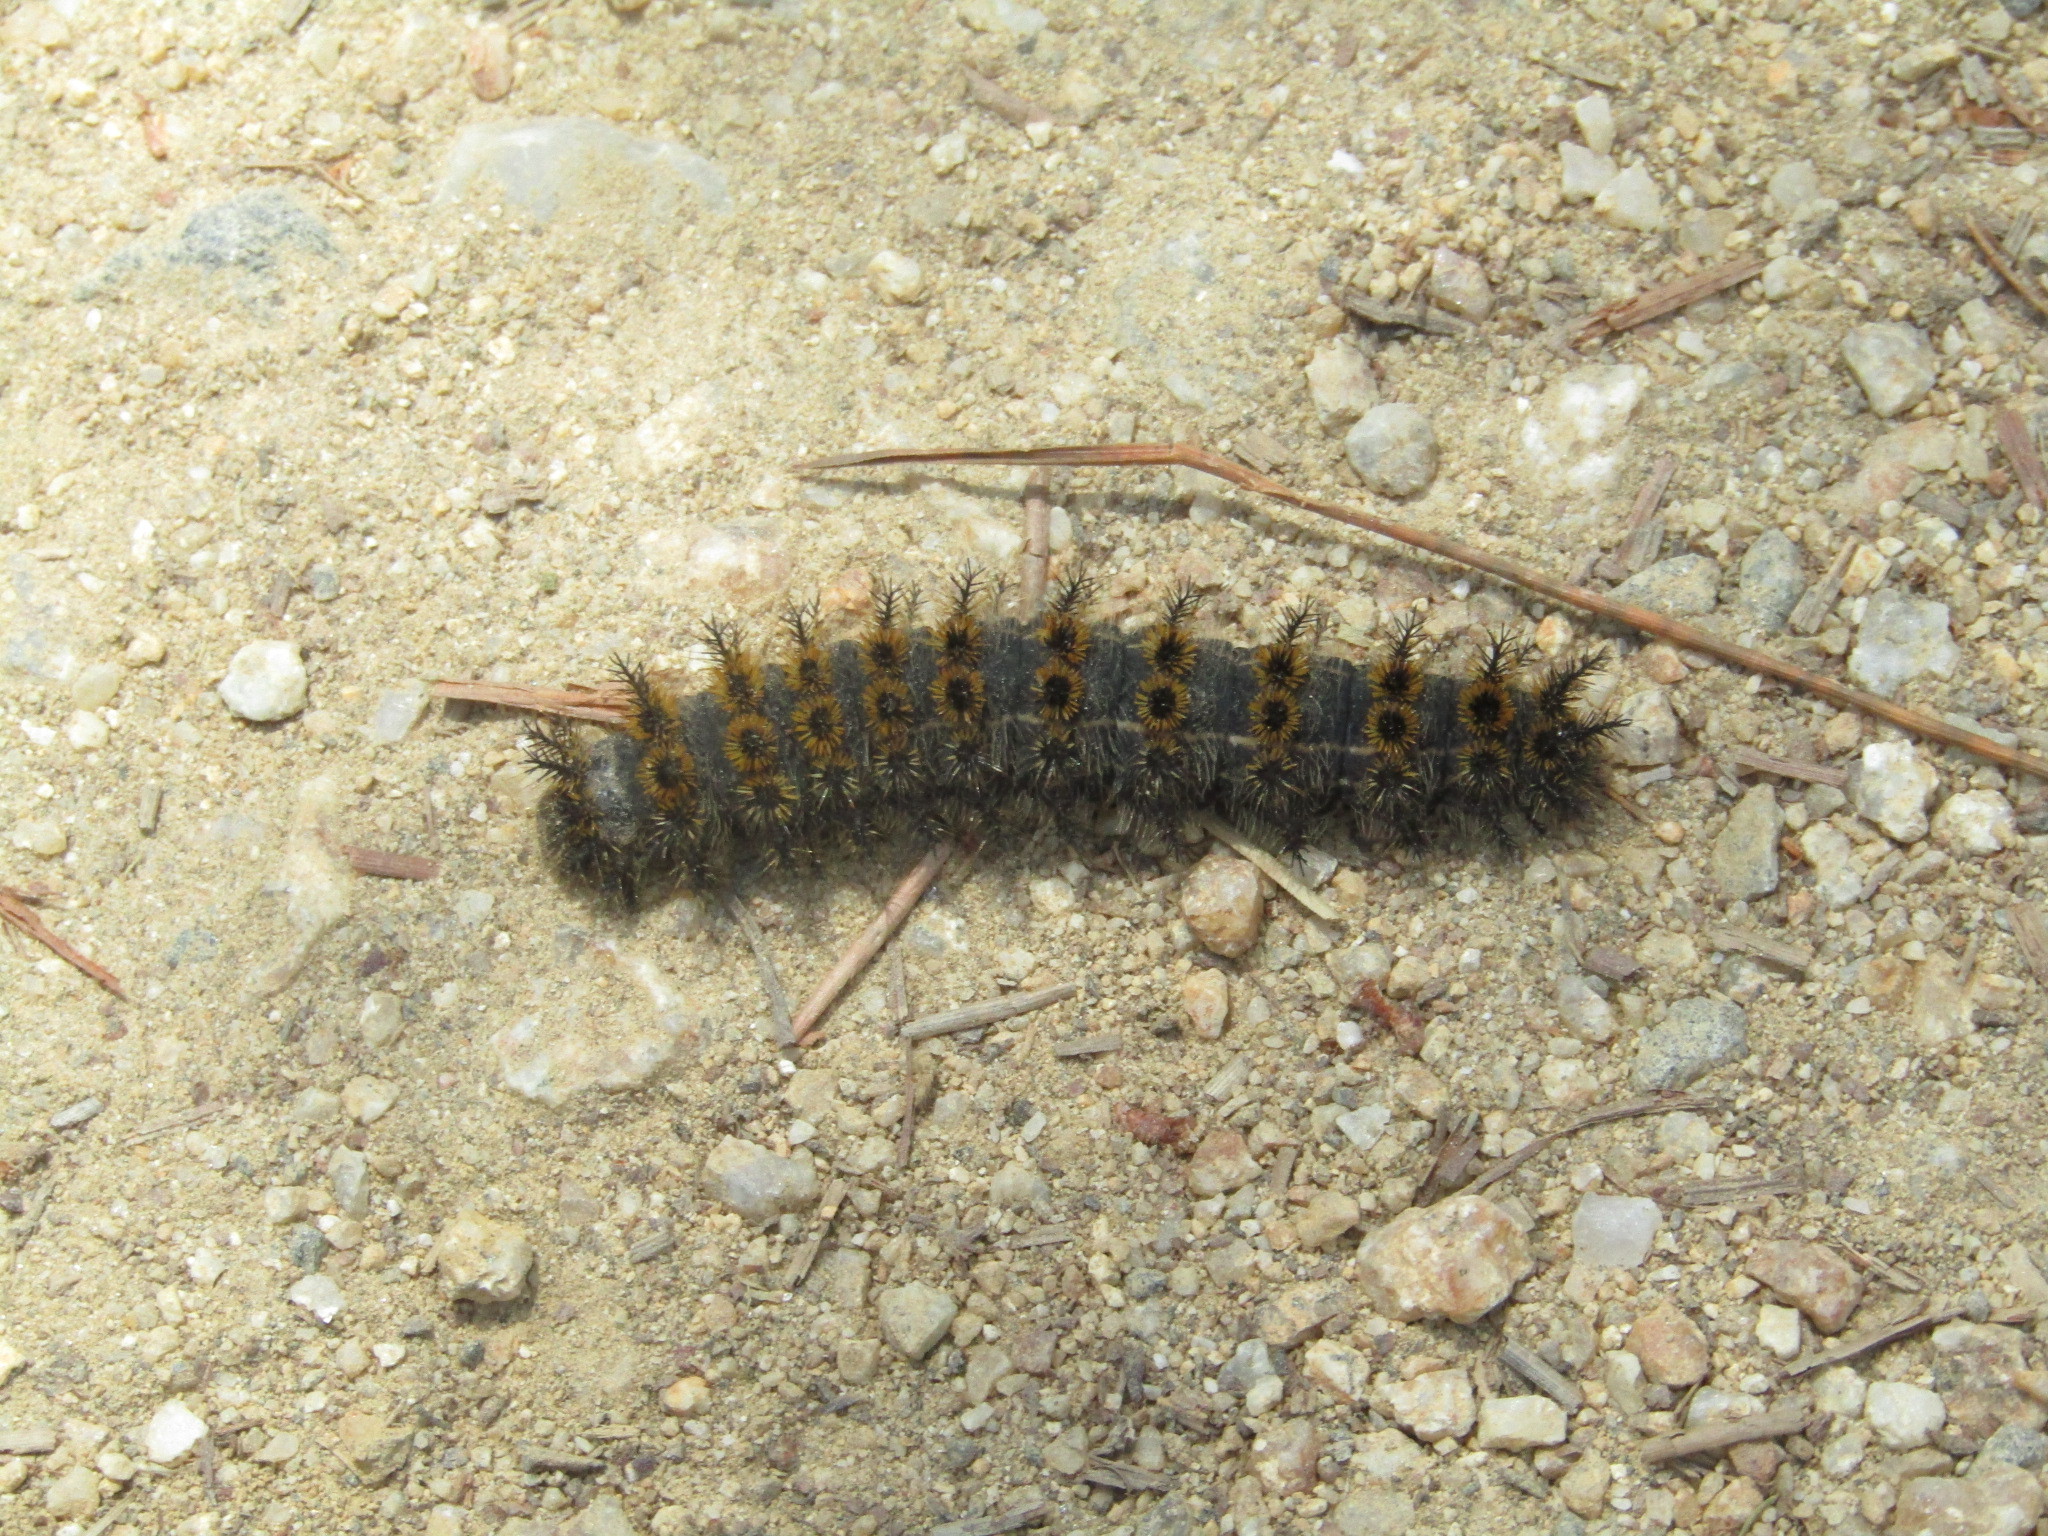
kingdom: Animalia
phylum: Arthropoda
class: Insecta
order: Lepidoptera
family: Saturniidae
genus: Hemileuca
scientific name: Hemileuca eglanterina
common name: Western sheepmoth
